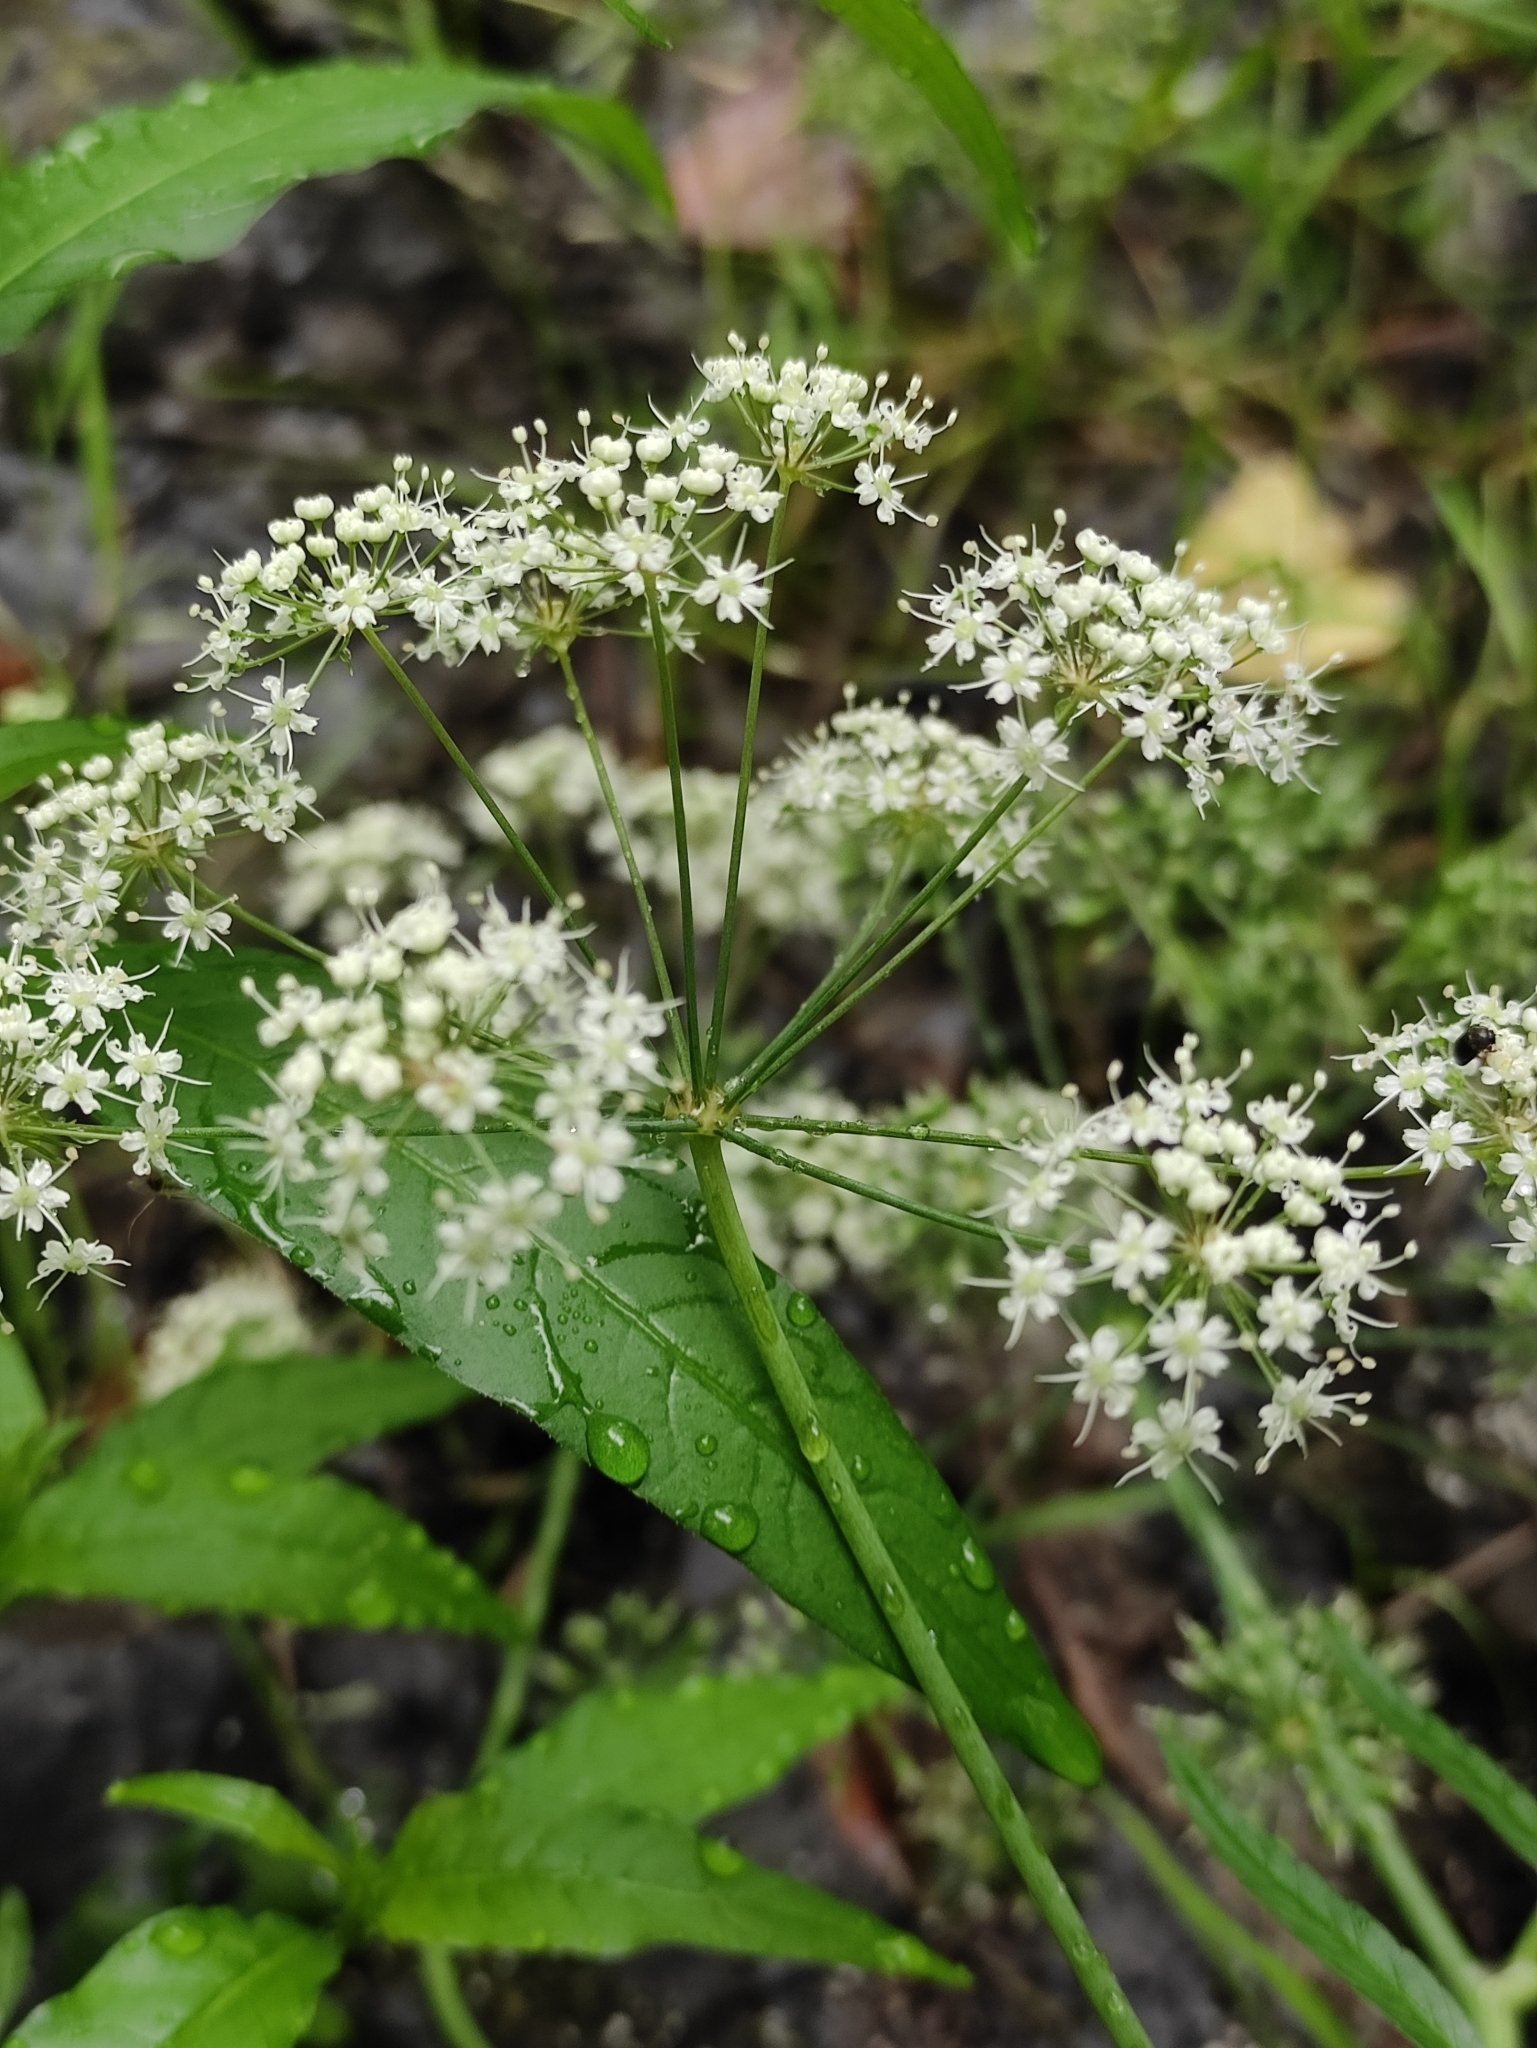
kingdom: Plantae
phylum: Tracheophyta
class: Magnoliopsida
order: Apiales
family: Apiaceae
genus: Cicuta
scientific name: Cicuta virosa
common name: Cowbane
